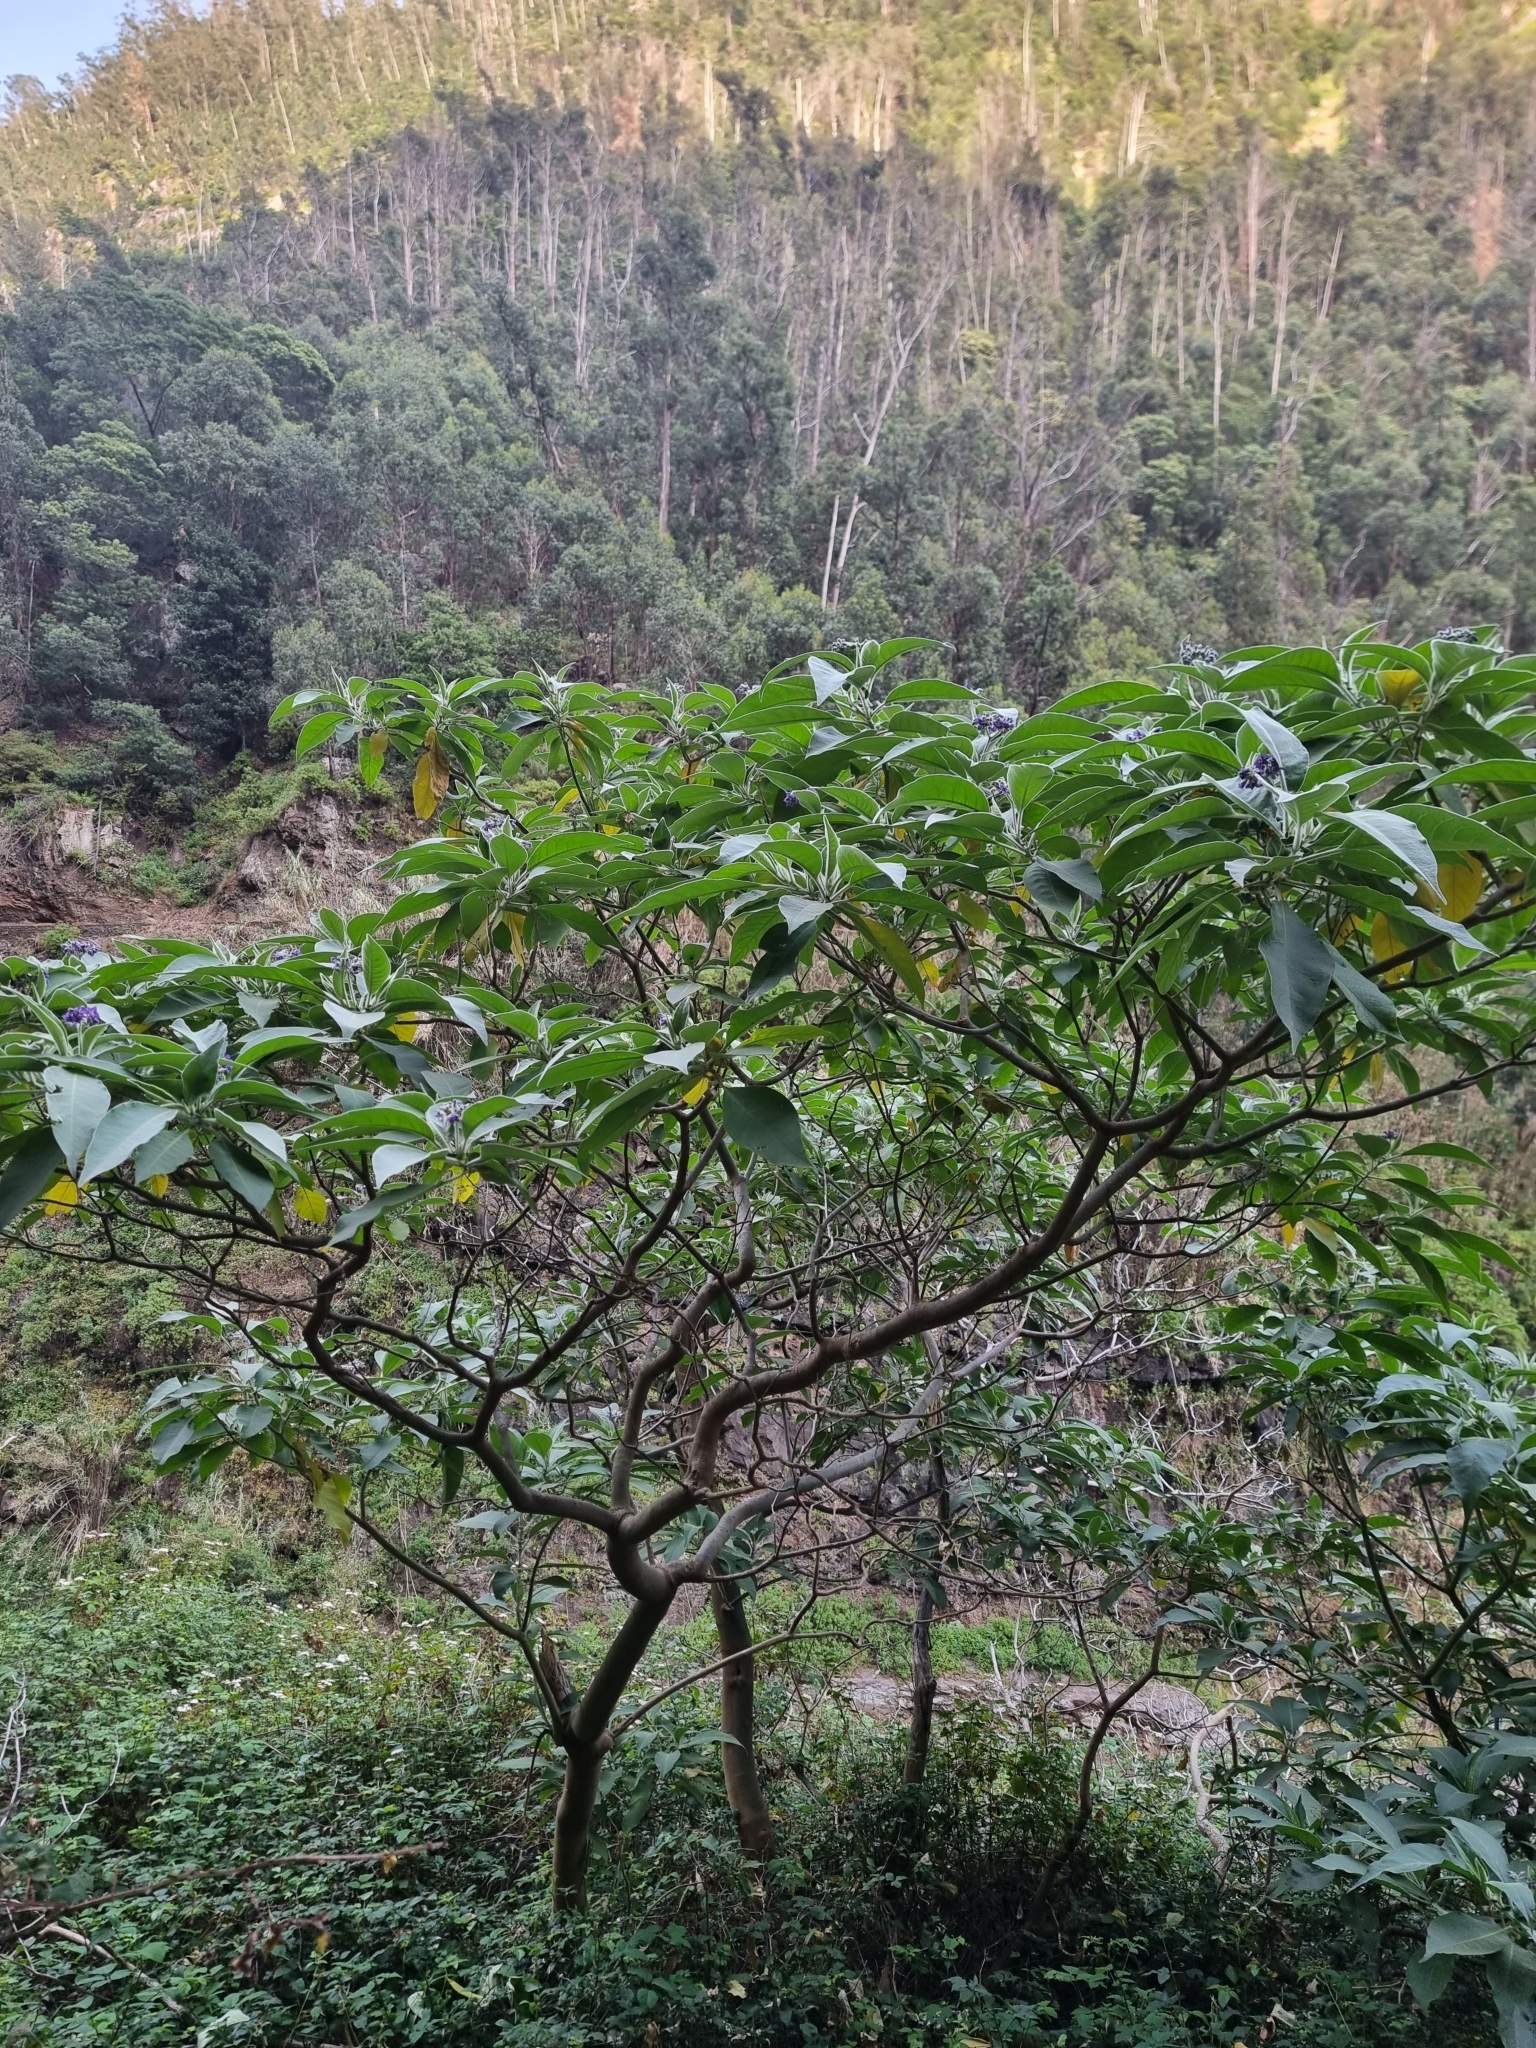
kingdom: Plantae
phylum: Tracheophyta
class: Magnoliopsida
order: Solanales
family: Solanaceae
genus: Solanum
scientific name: Solanum mauritianum
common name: Earleaf nightshade
